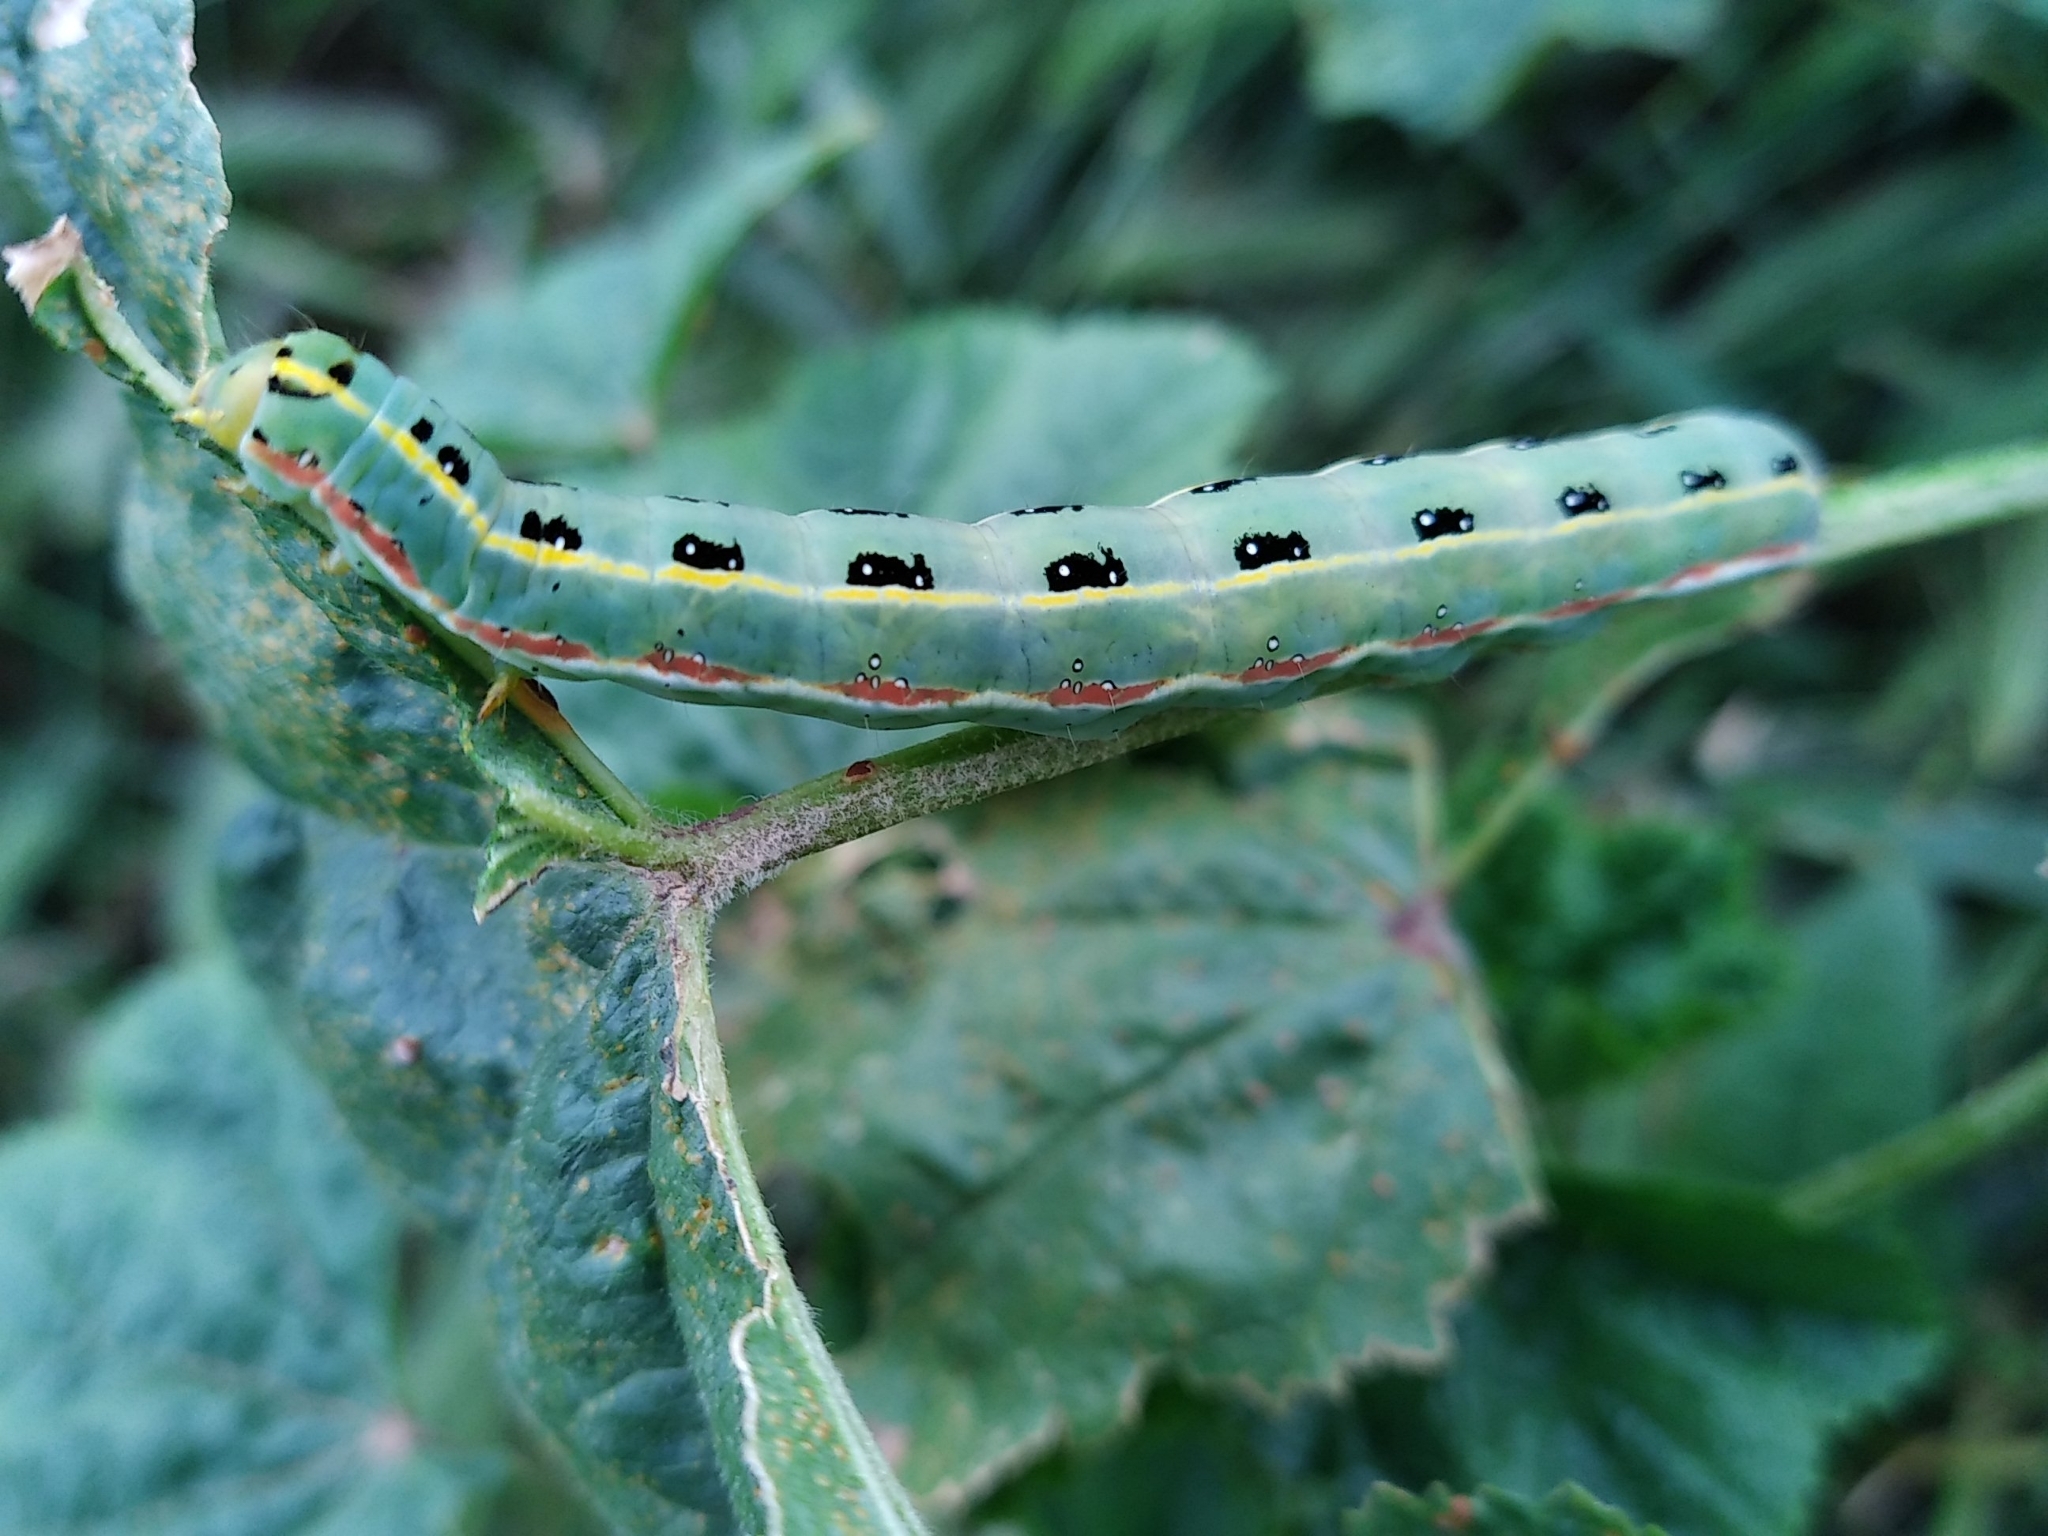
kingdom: Animalia
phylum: Arthropoda
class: Insecta
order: Lepidoptera
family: Noctuidae
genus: Xylena
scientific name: Xylena exsoleta
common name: Sword-grass
